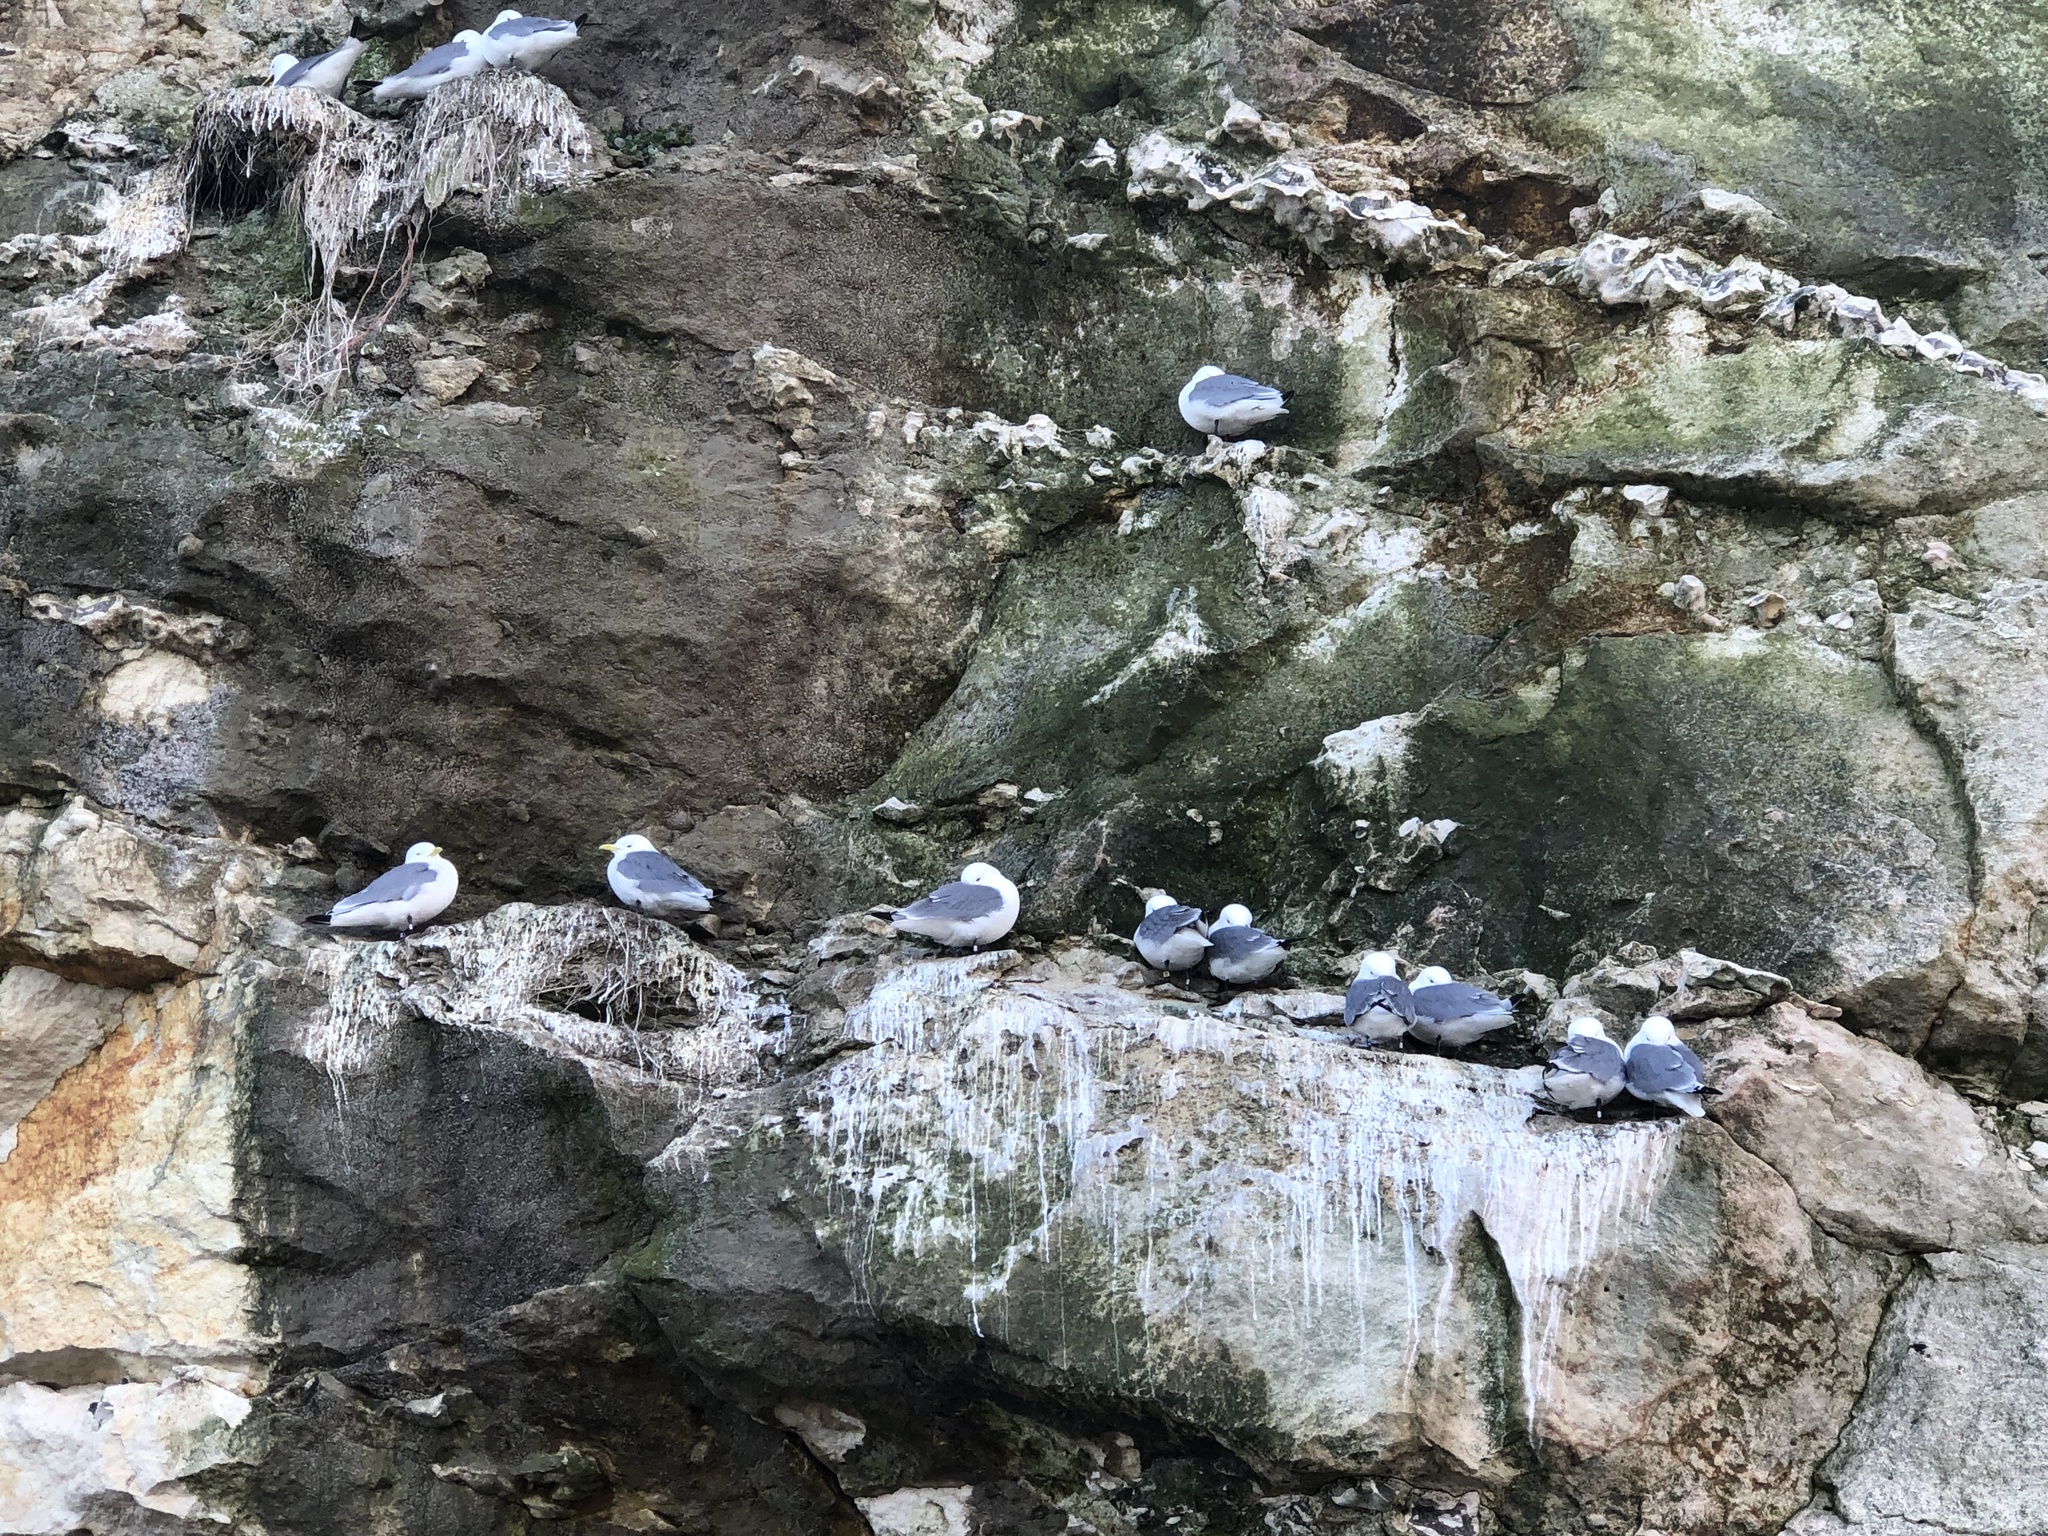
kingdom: Animalia
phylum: Chordata
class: Aves
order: Charadriiformes
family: Laridae
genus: Rissa
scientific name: Rissa tridactyla
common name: Black-legged kittiwake
